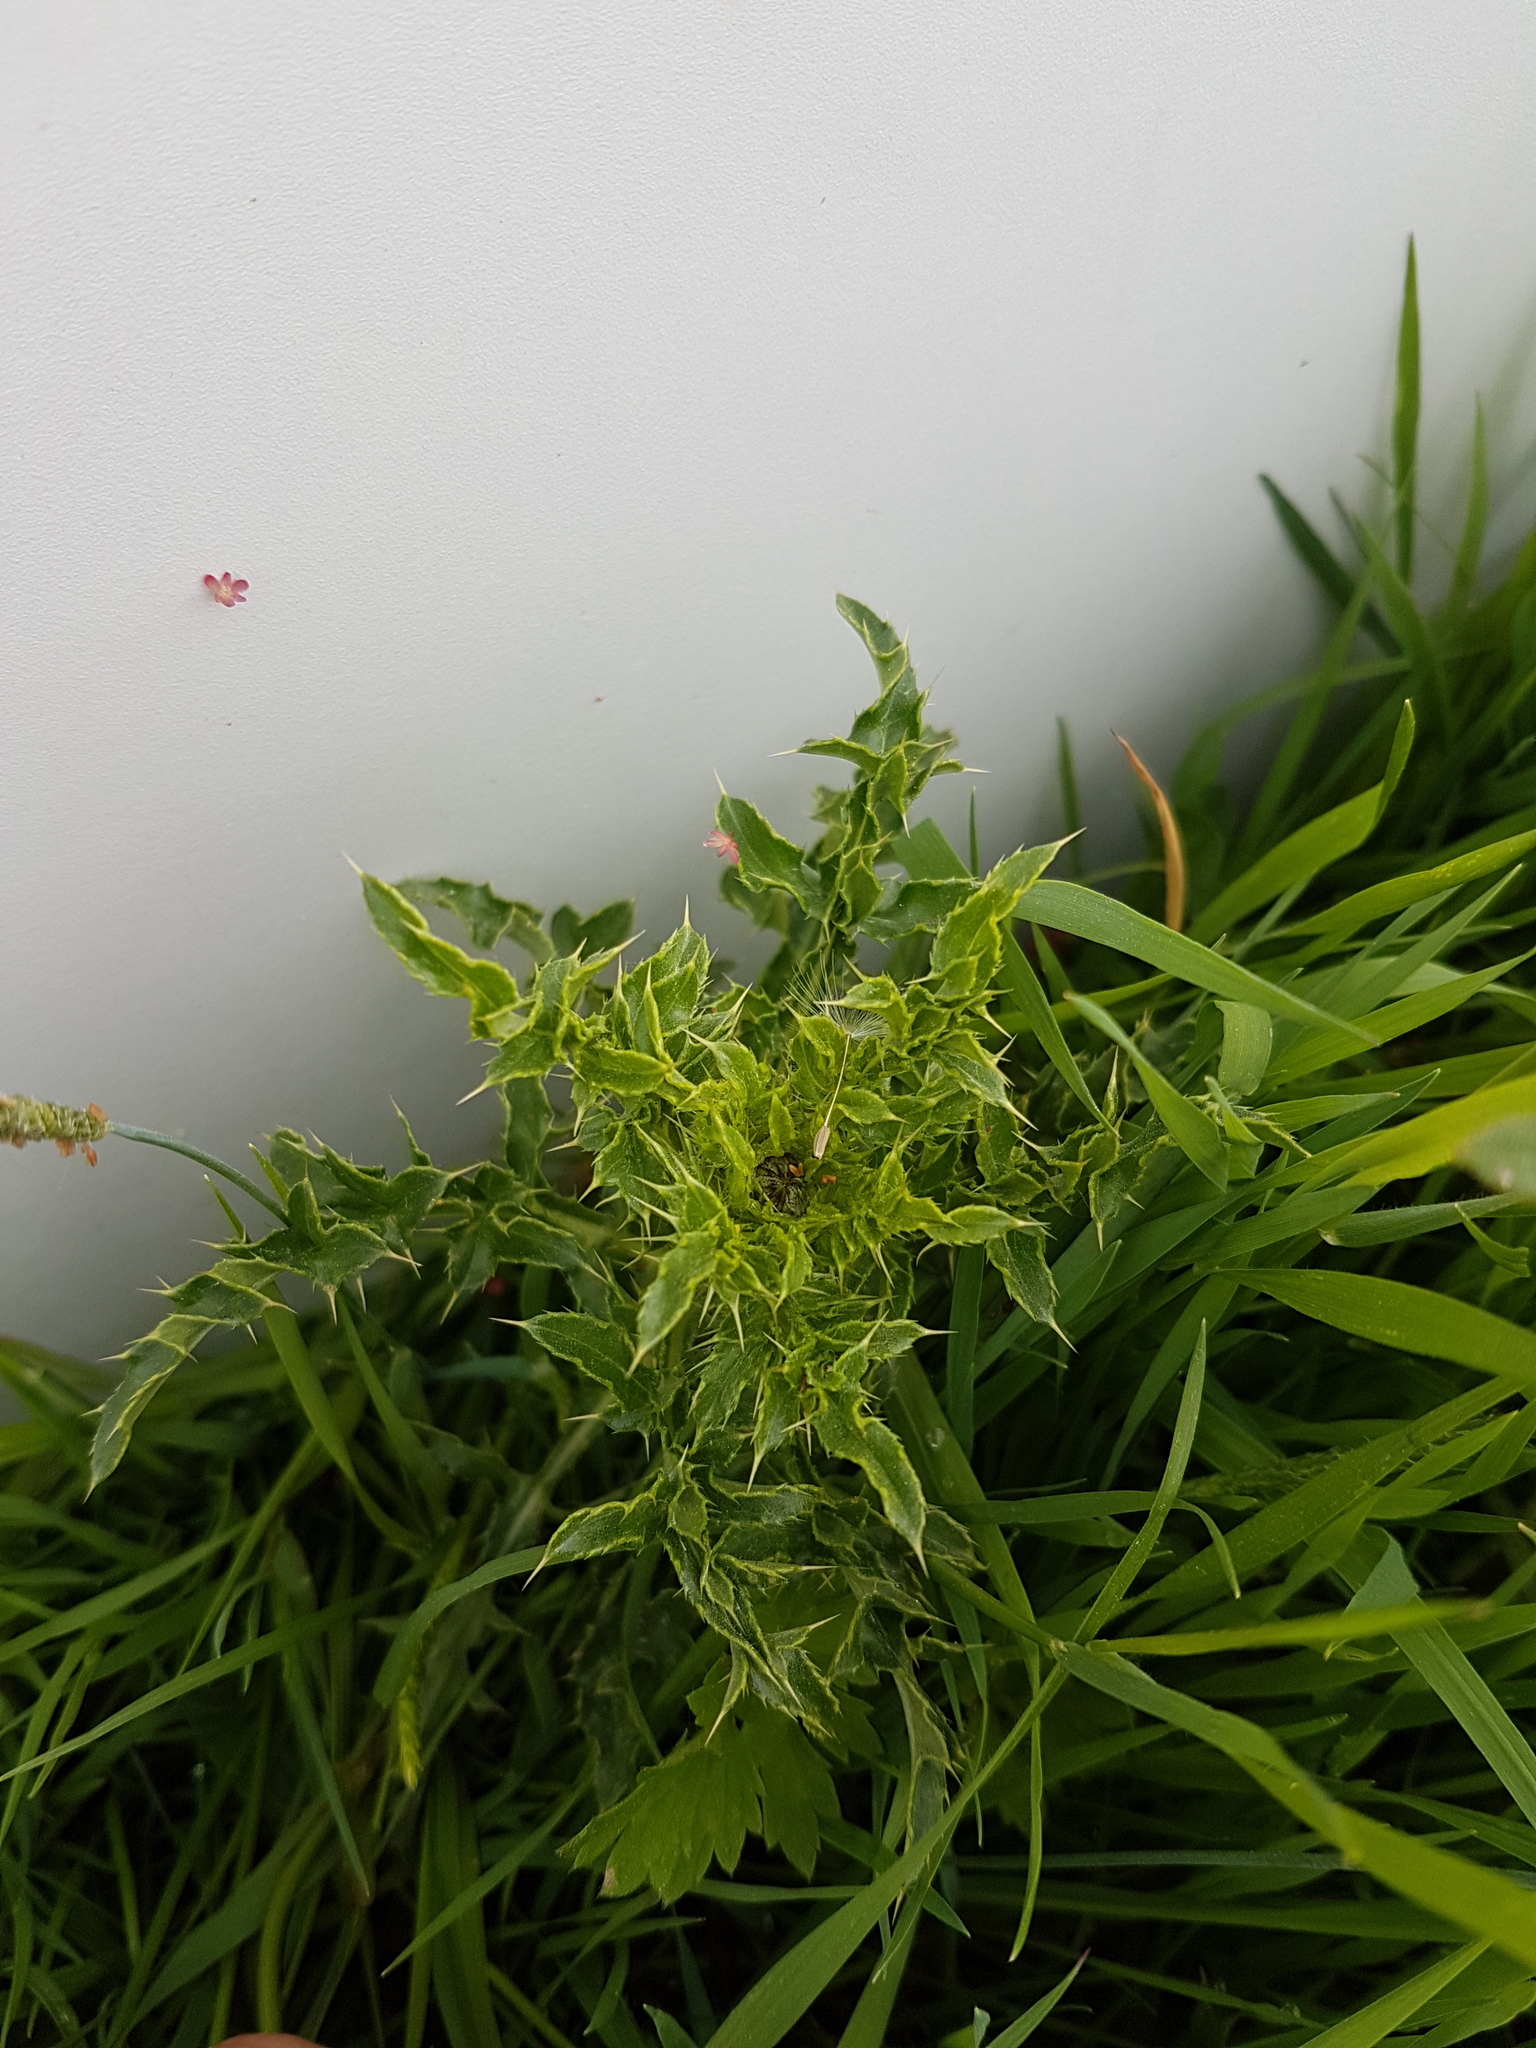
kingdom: Plantae
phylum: Tracheophyta
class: Magnoliopsida
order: Asterales
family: Asteraceae
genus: Cirsium
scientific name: Cirsium arvense
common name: Creeping thistle
